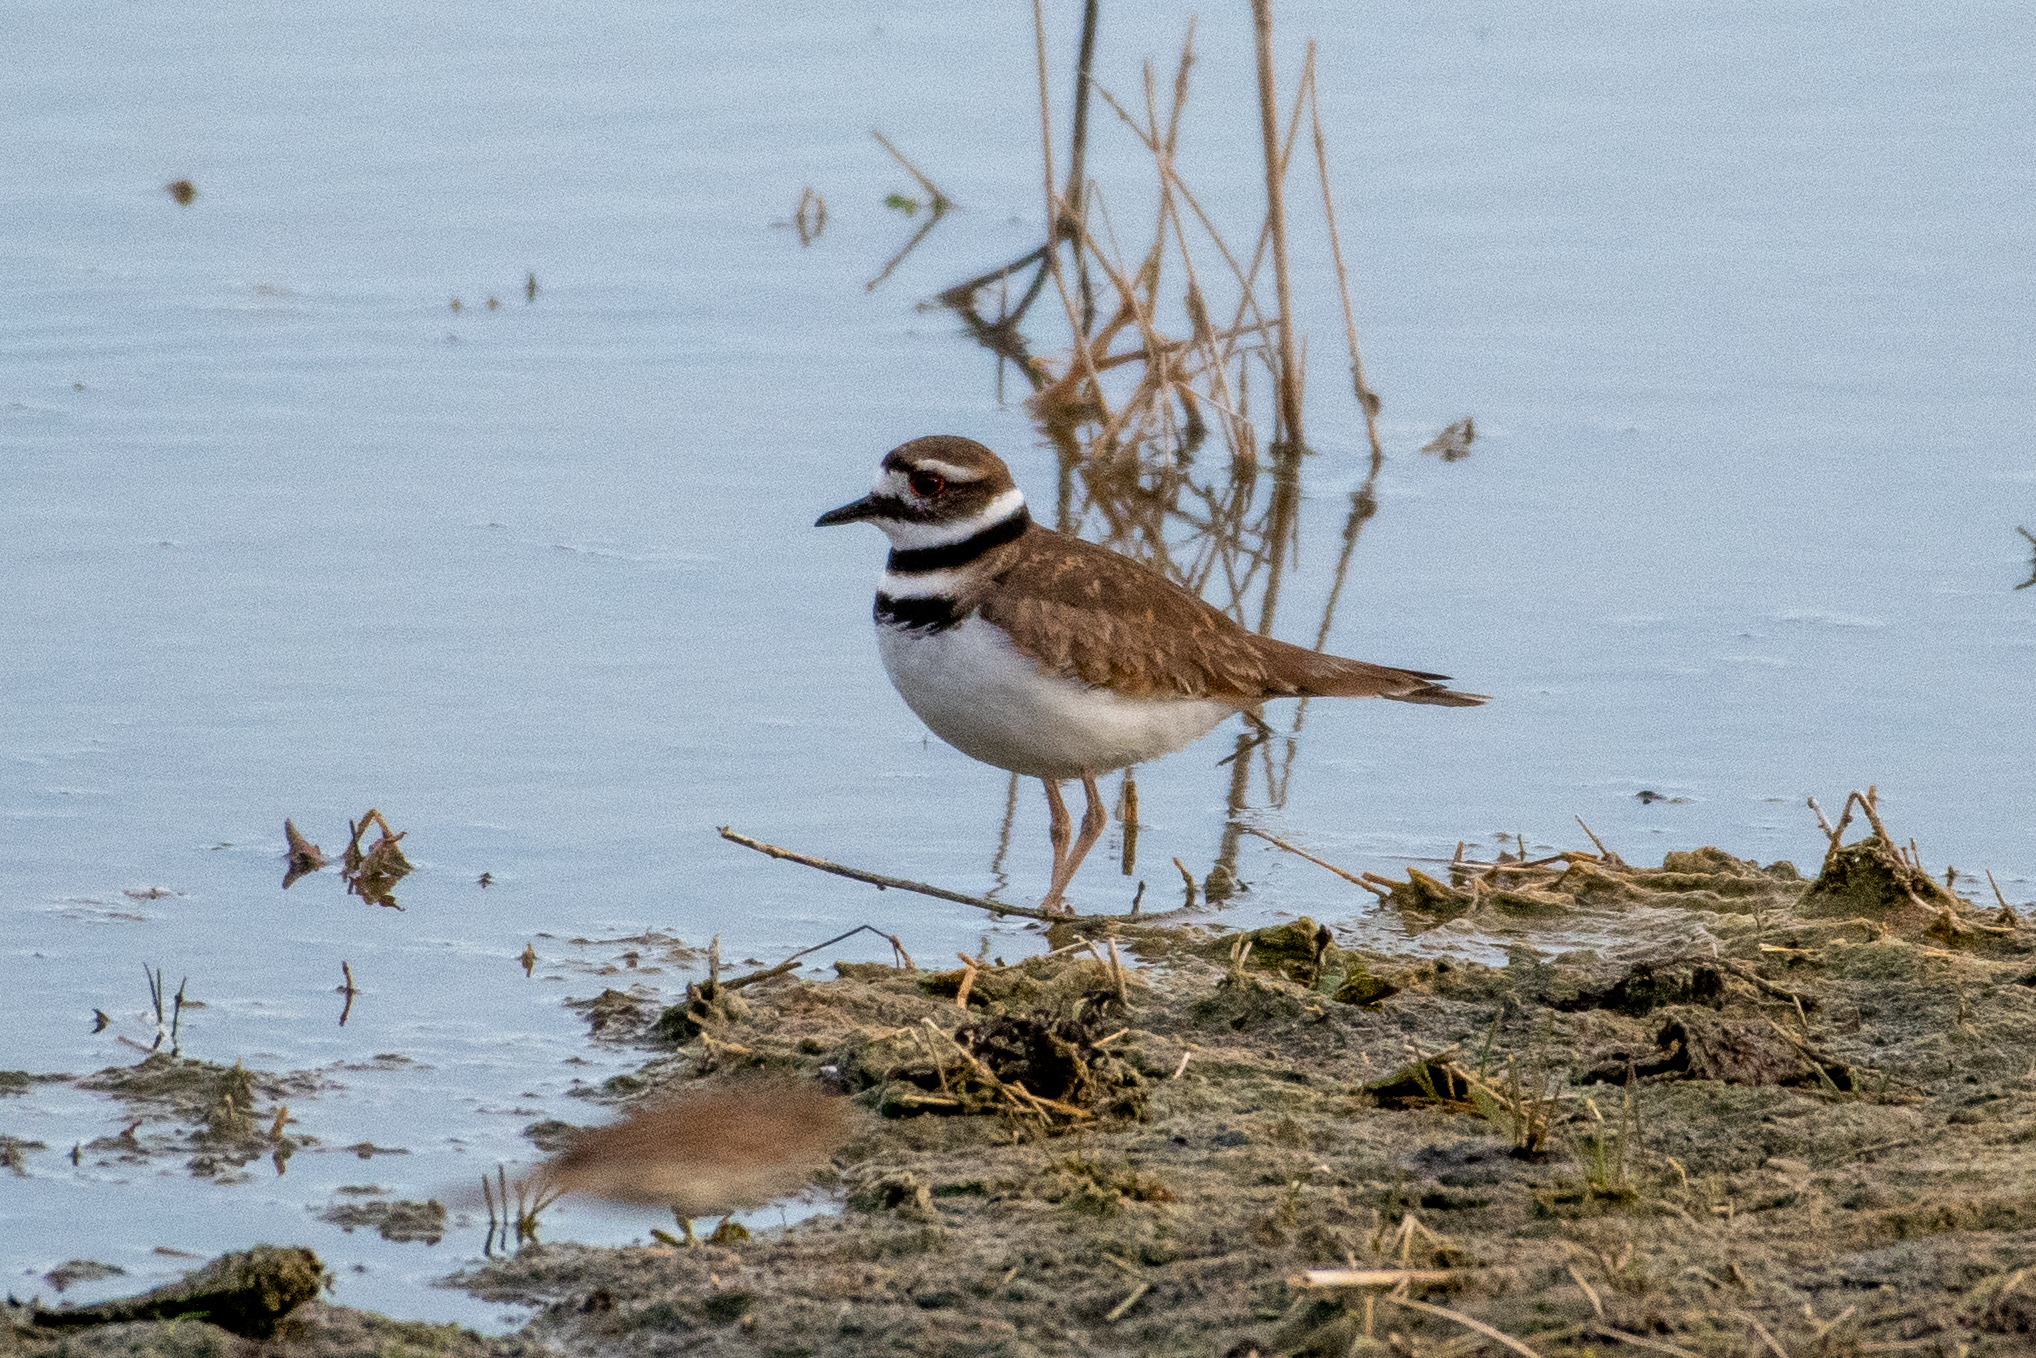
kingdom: Animalia
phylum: Chordata
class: Aves
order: Charadriiformes
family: Charadriidae
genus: Charadrius
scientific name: Charadrius vociferus
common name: Killdeer
